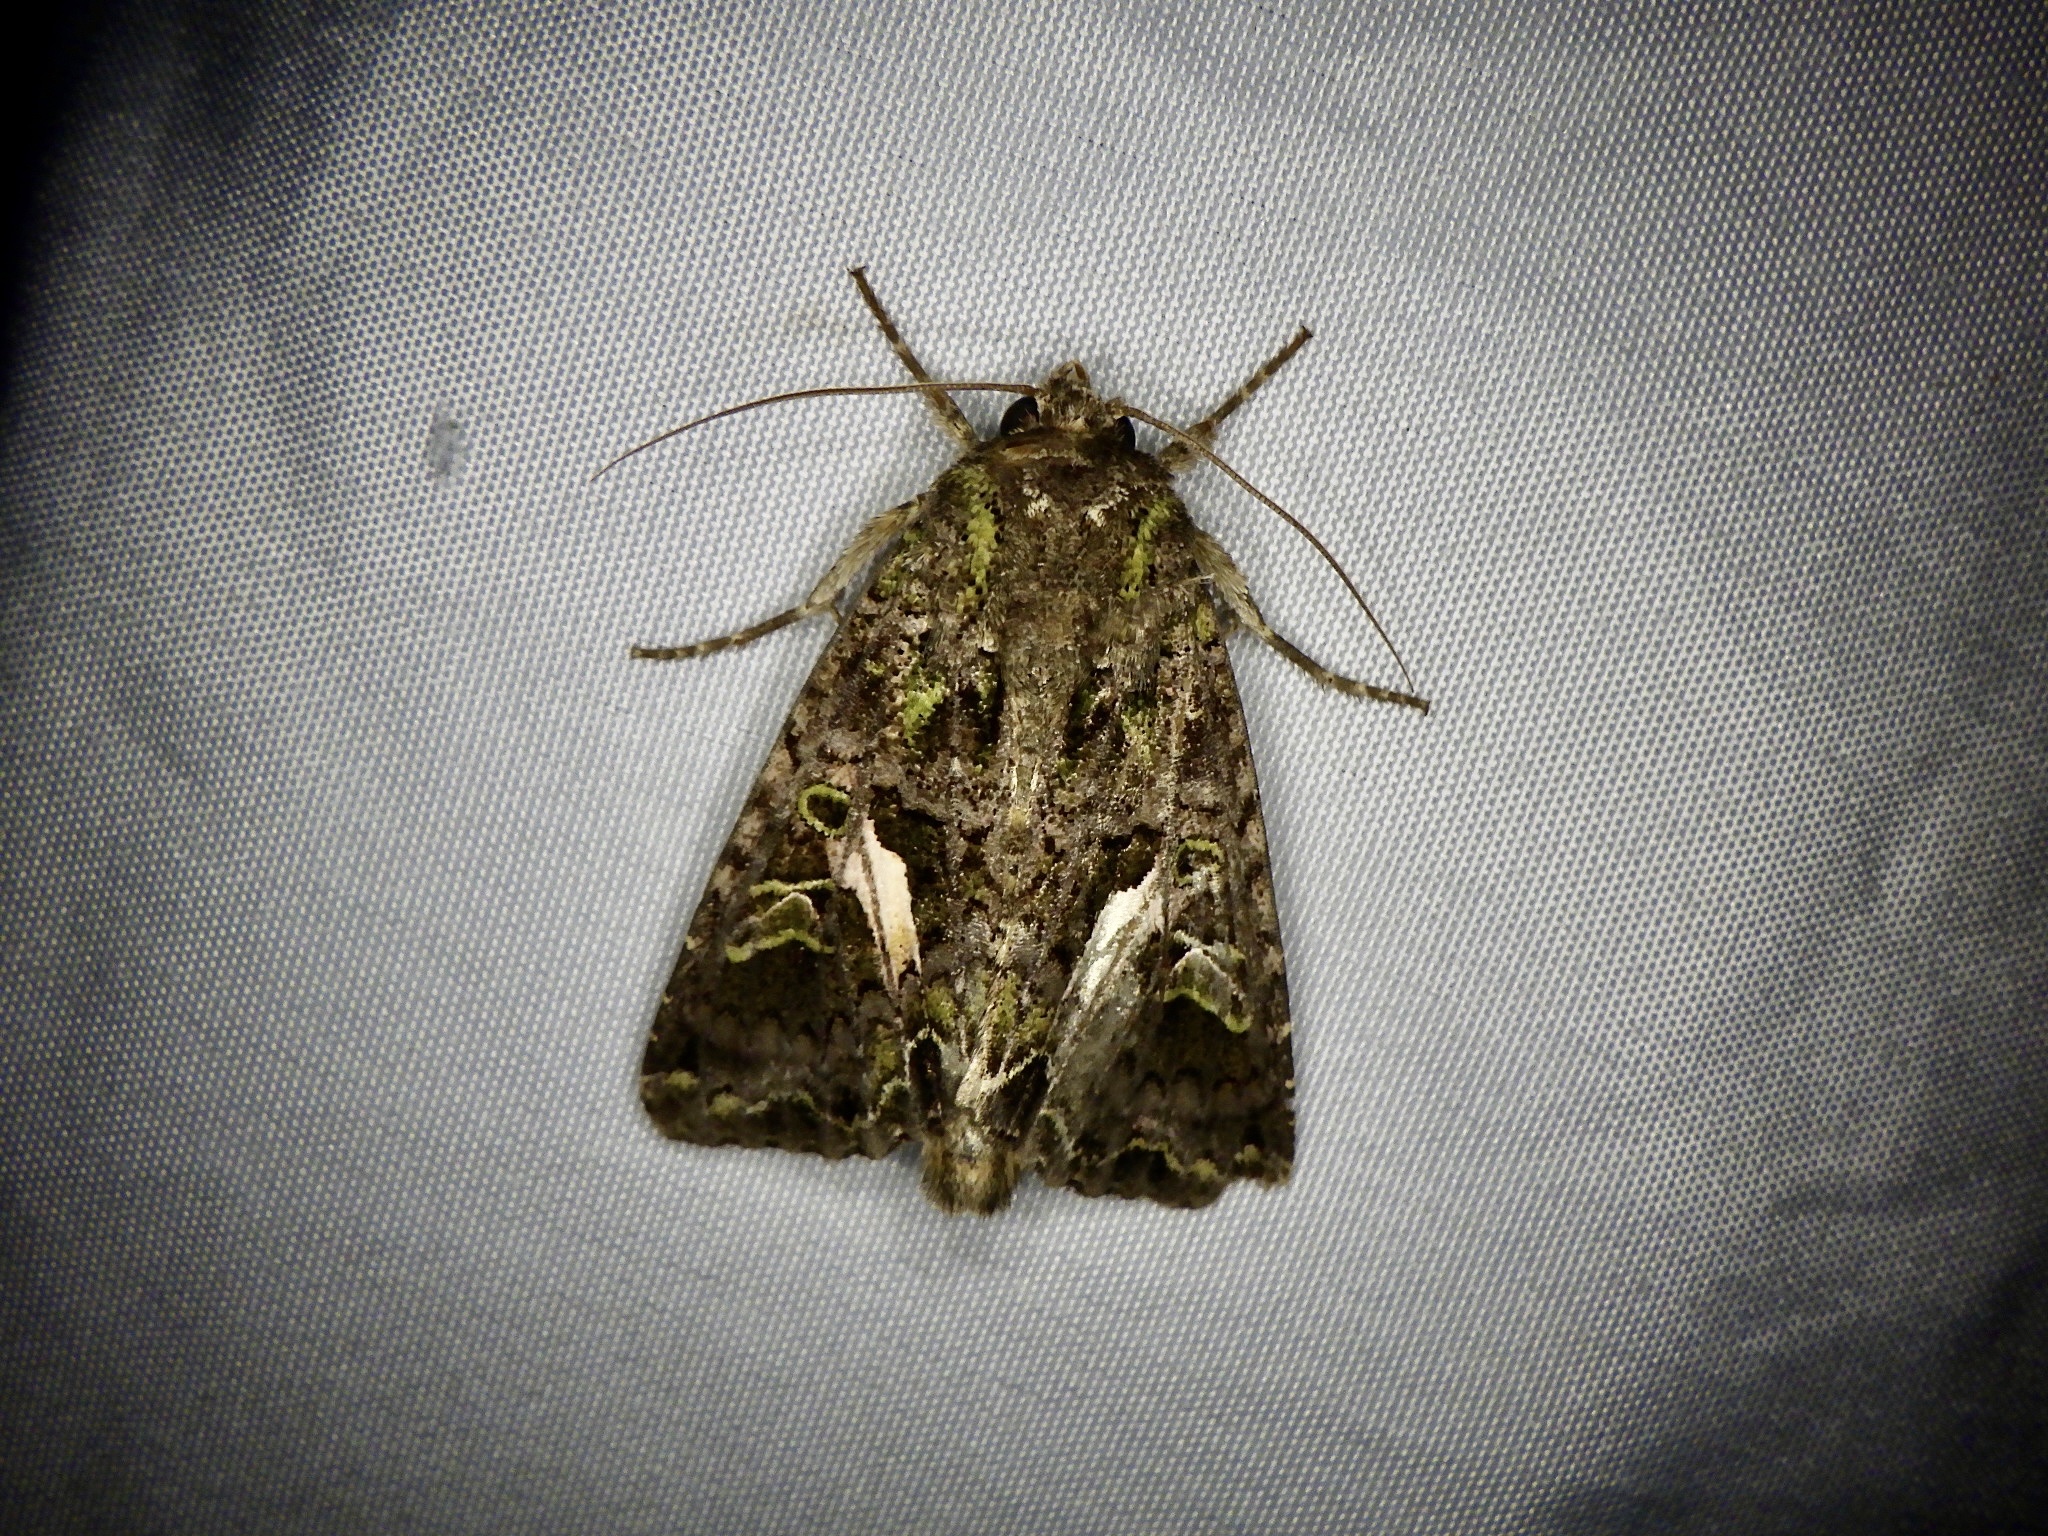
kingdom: Animalia
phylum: Arthropoda
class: Insecta
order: Lepidoptera
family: Noctuidae
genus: Trachea
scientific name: Trachea atriplicis
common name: Orache moth
